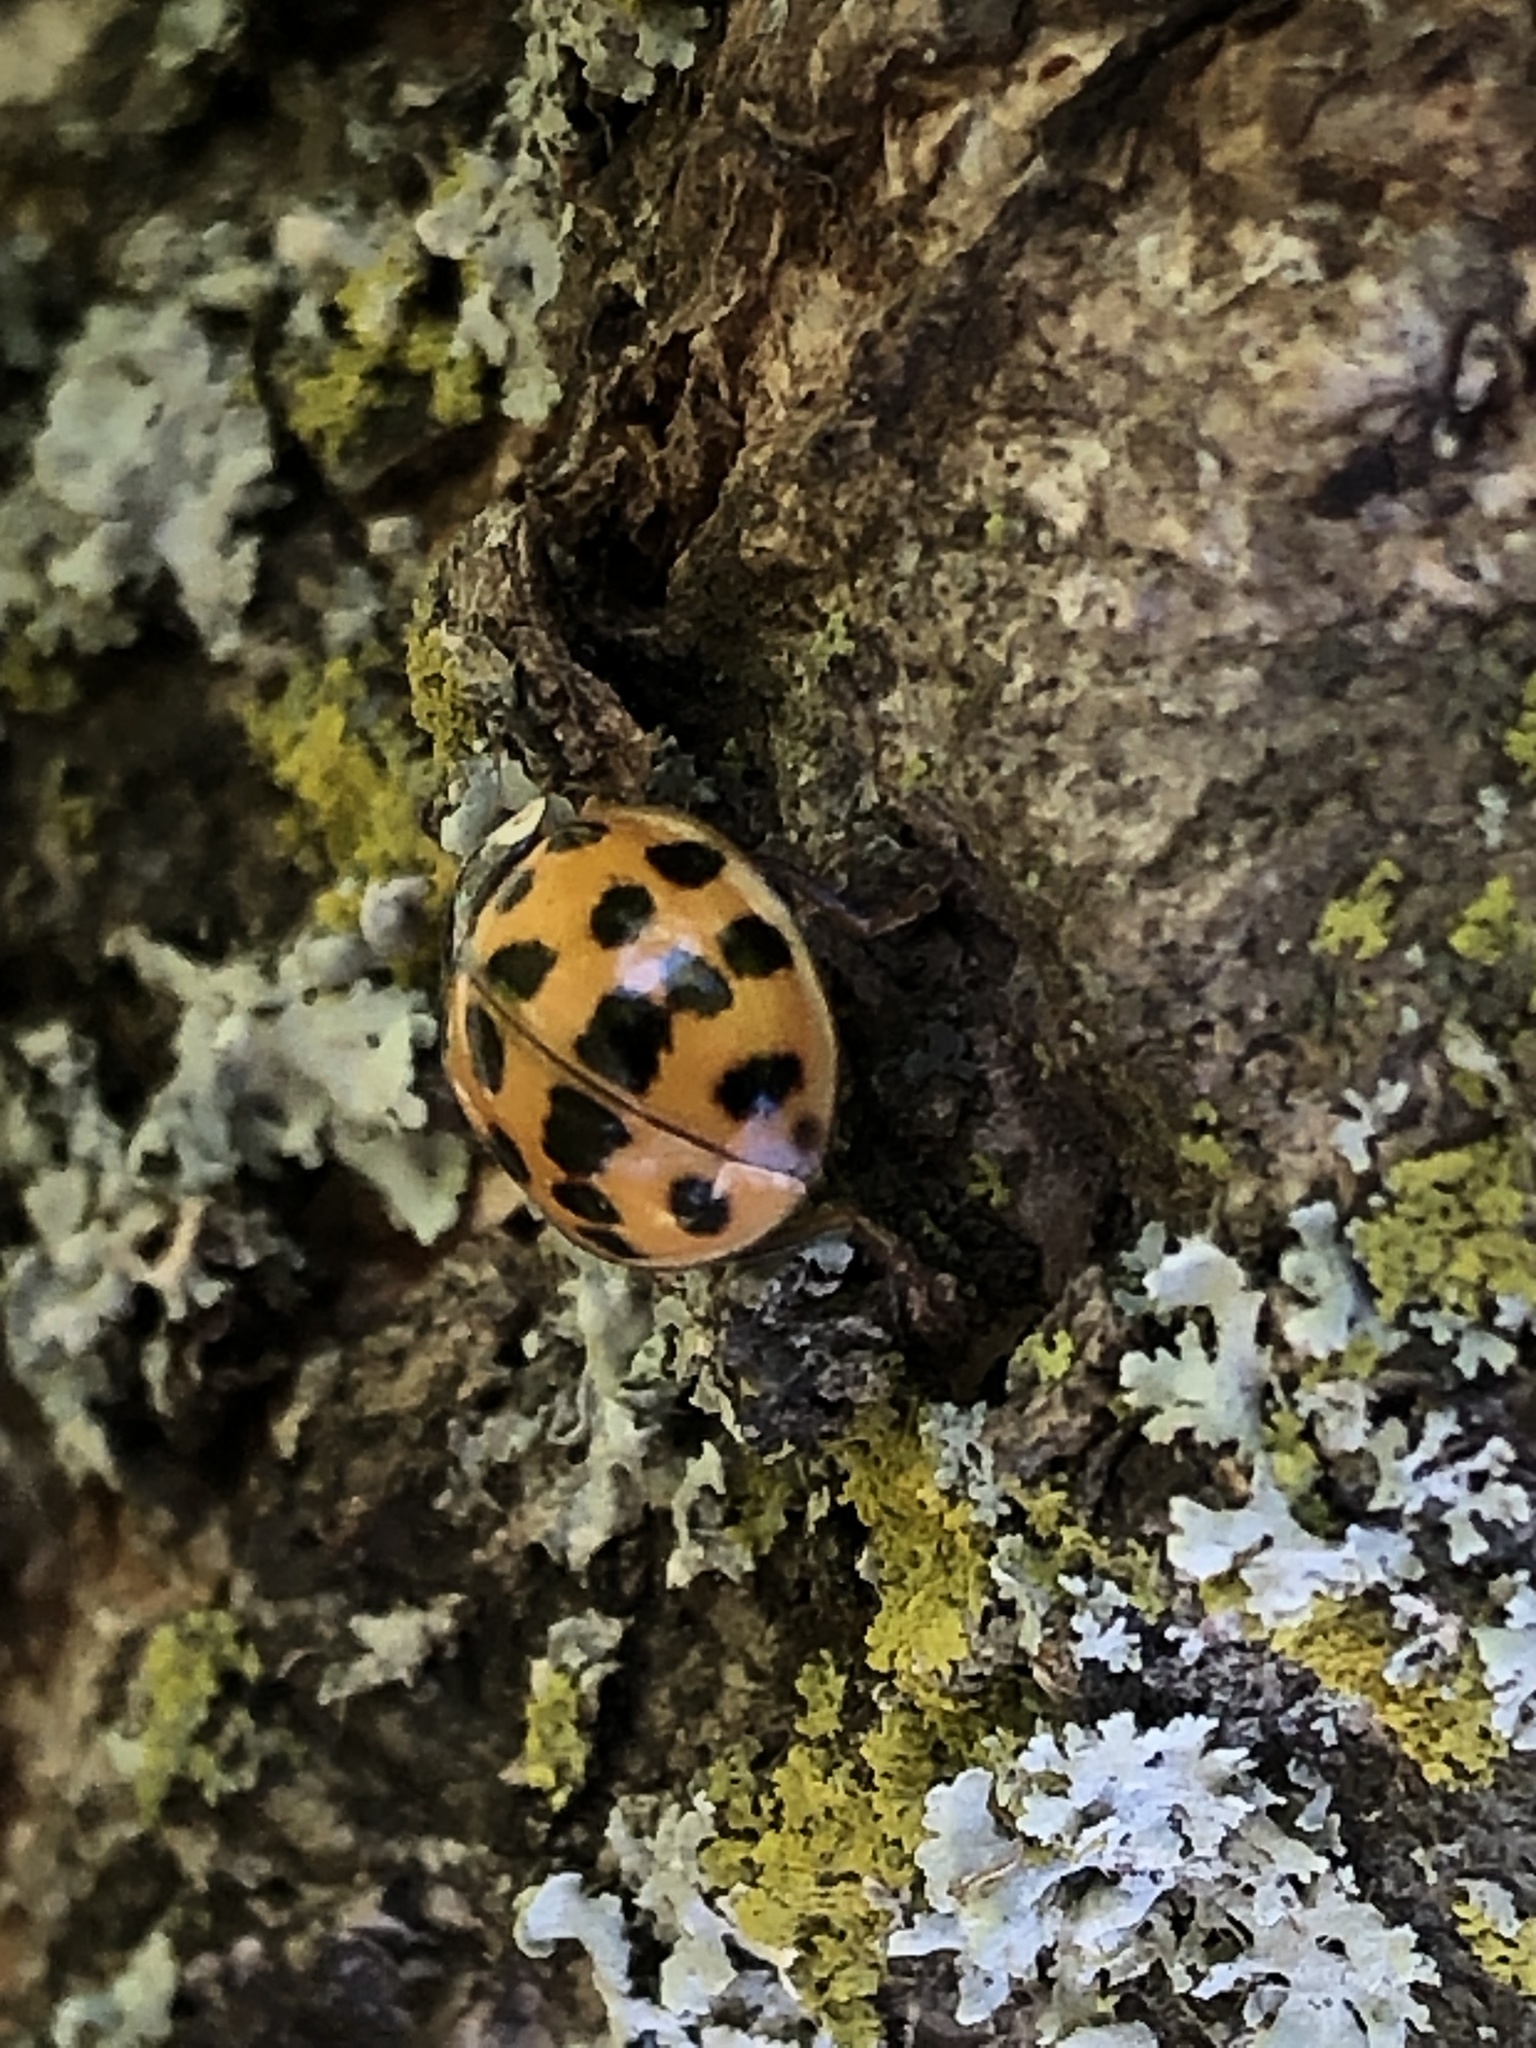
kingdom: Animalia
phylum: Arthropoda
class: Insecta
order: Coleoptera
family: Coccinellidae
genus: Harmonia
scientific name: Harmonia axyridis
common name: Harlequin ladybird
